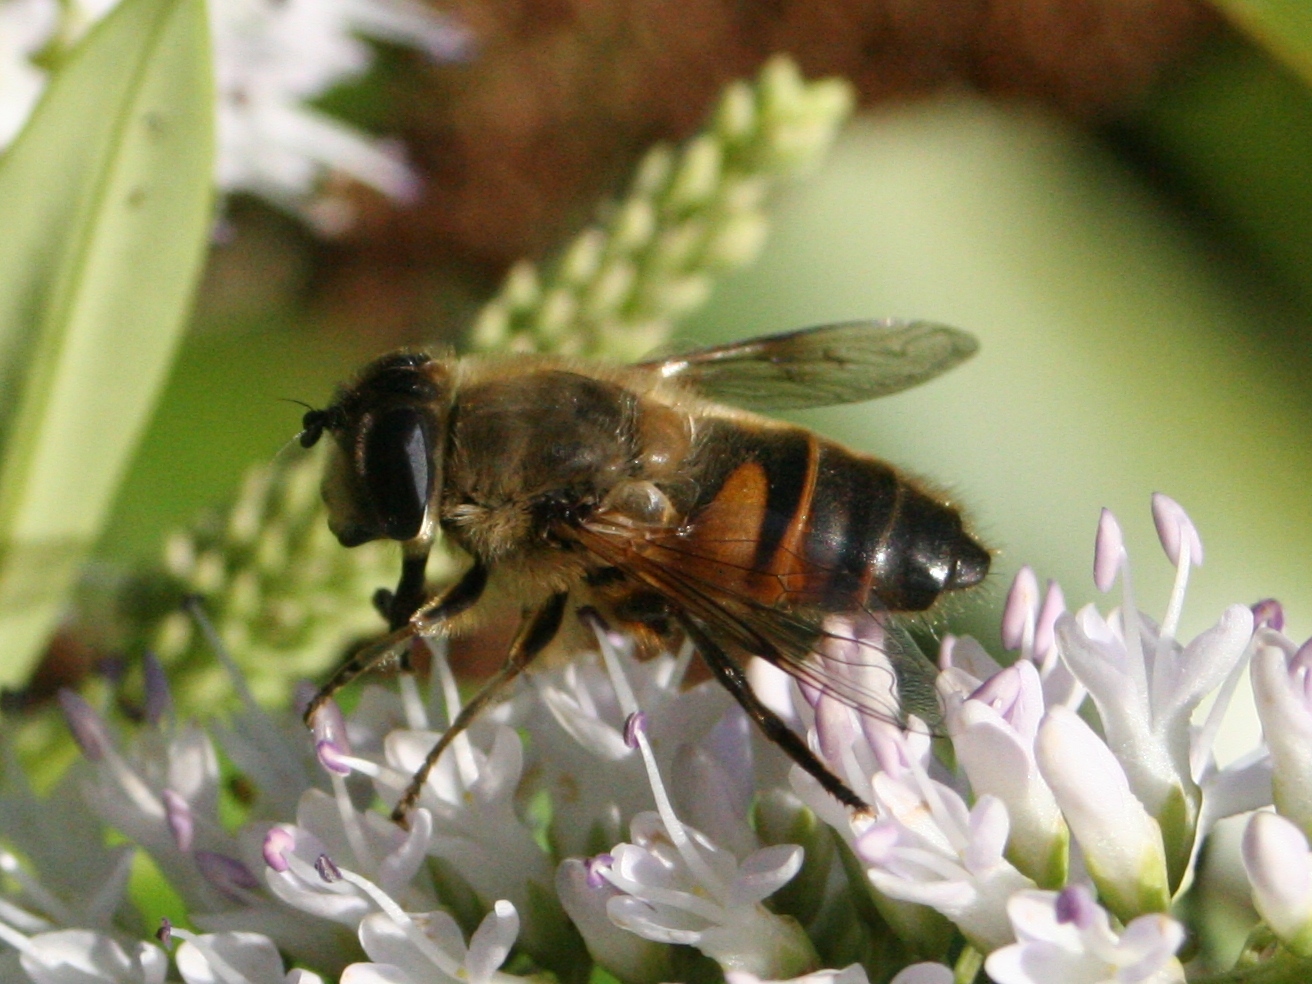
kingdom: Animalia
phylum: Arthropoda
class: Insecta
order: Diptera
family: Syrphidae
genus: Eristalis
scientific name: Eristalis tenax
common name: Drone fly
